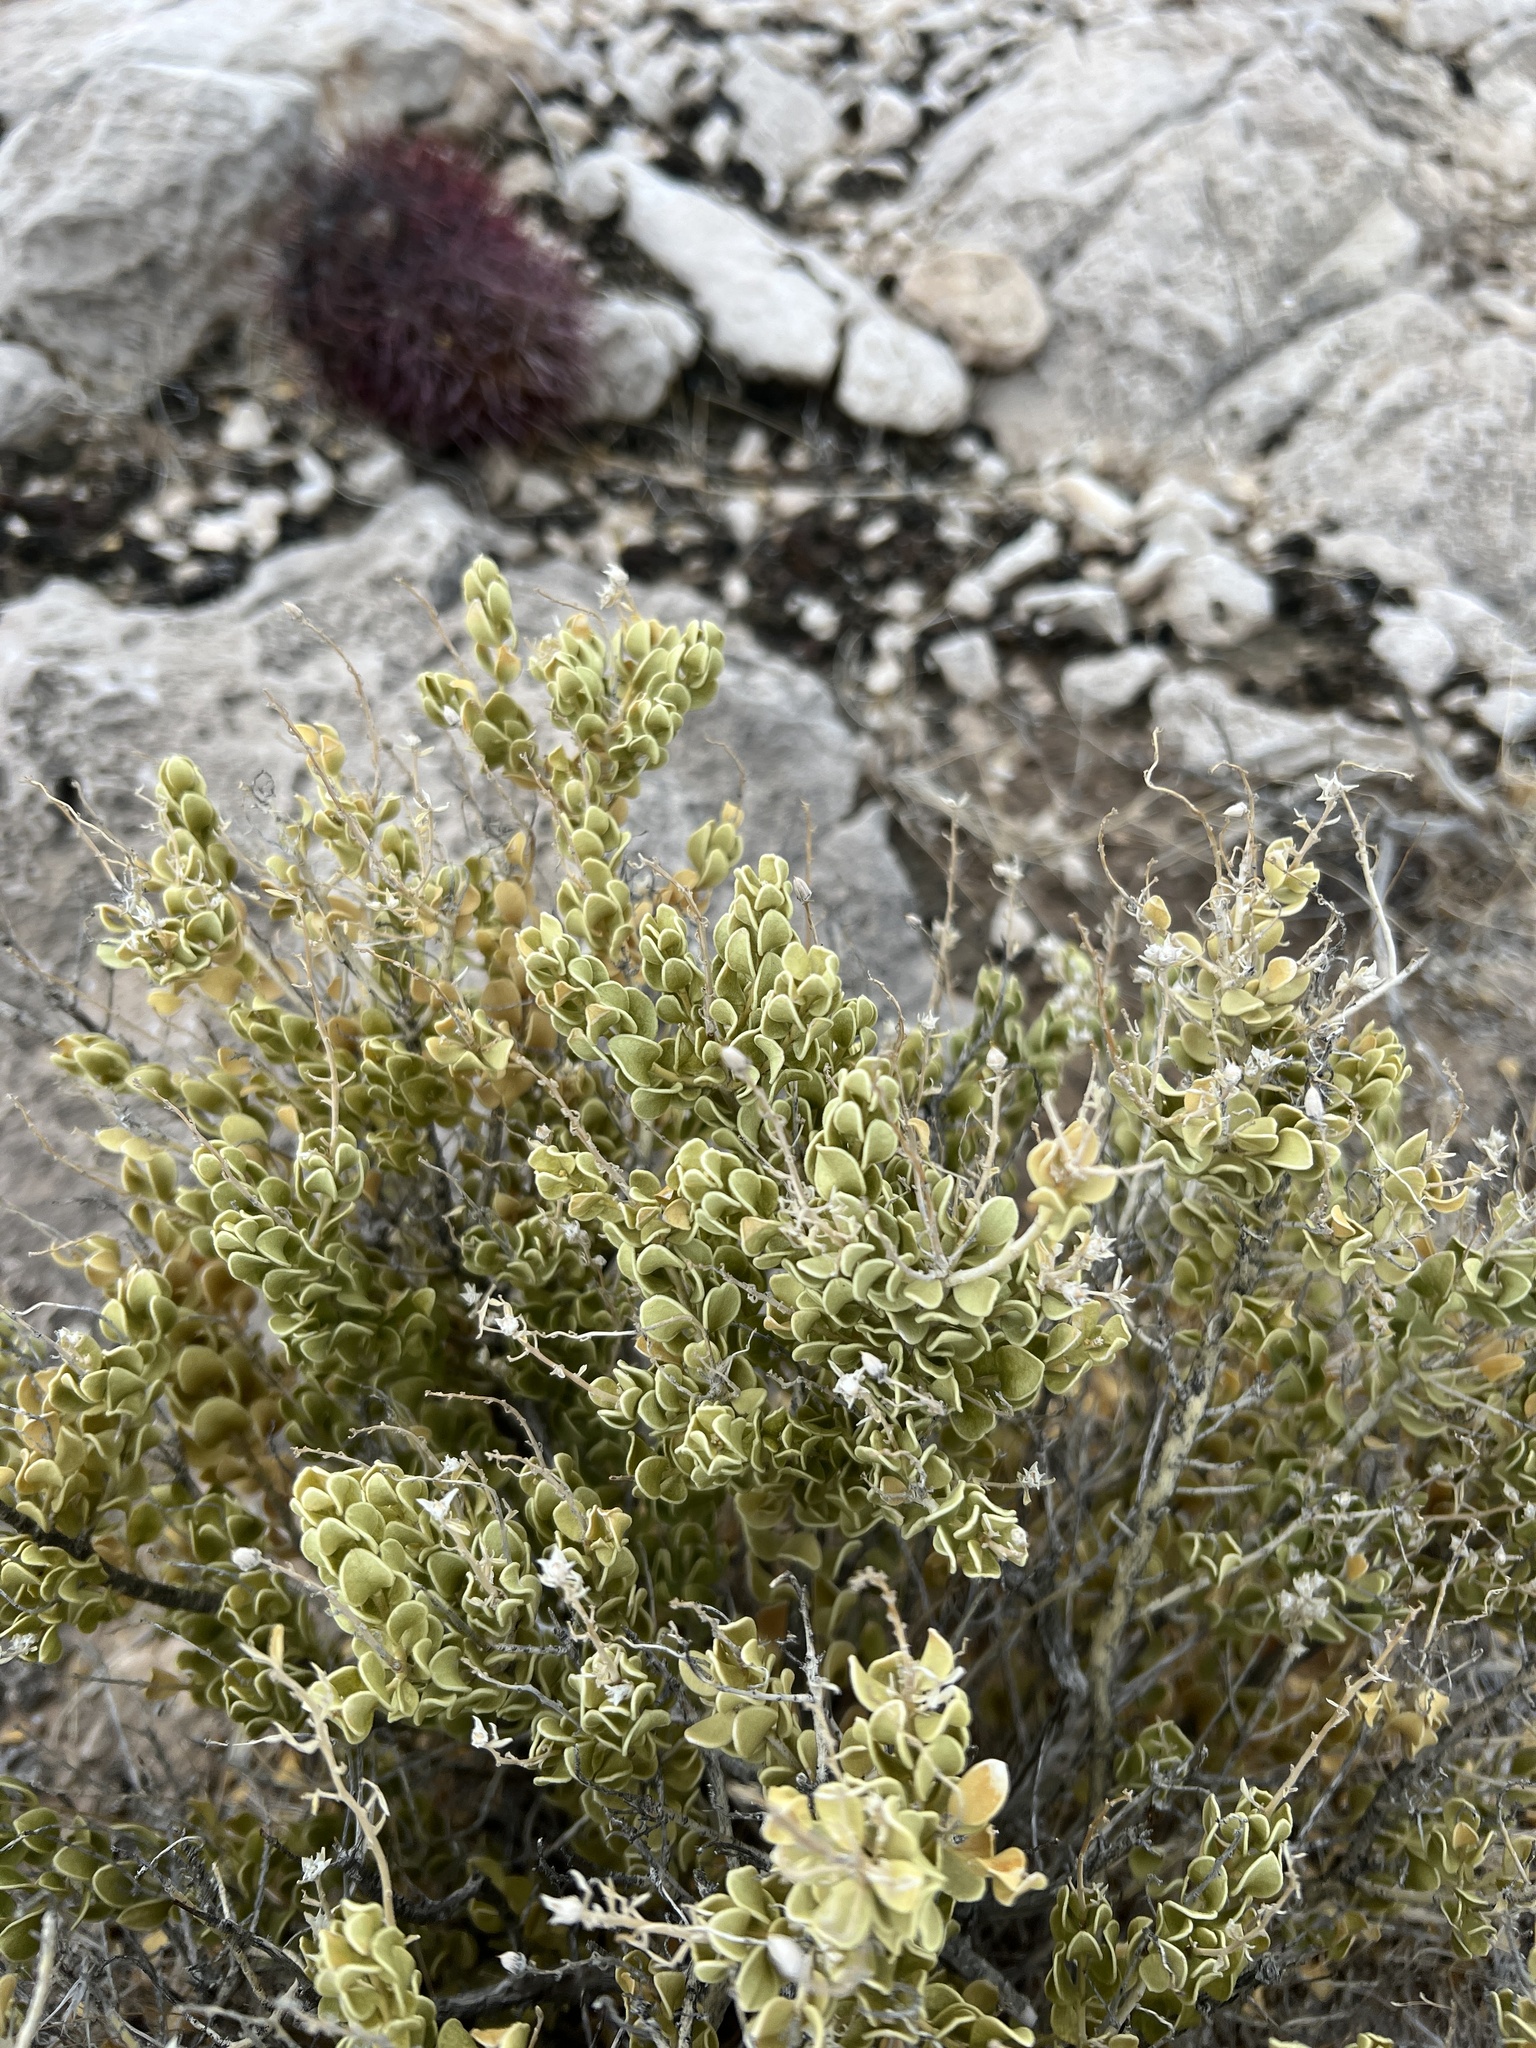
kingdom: Plantae
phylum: Tracheophyta
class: Magnoliopsida
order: Celastrales
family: Celastraceae
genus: Mortonia
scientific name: Mortonia utahensis
